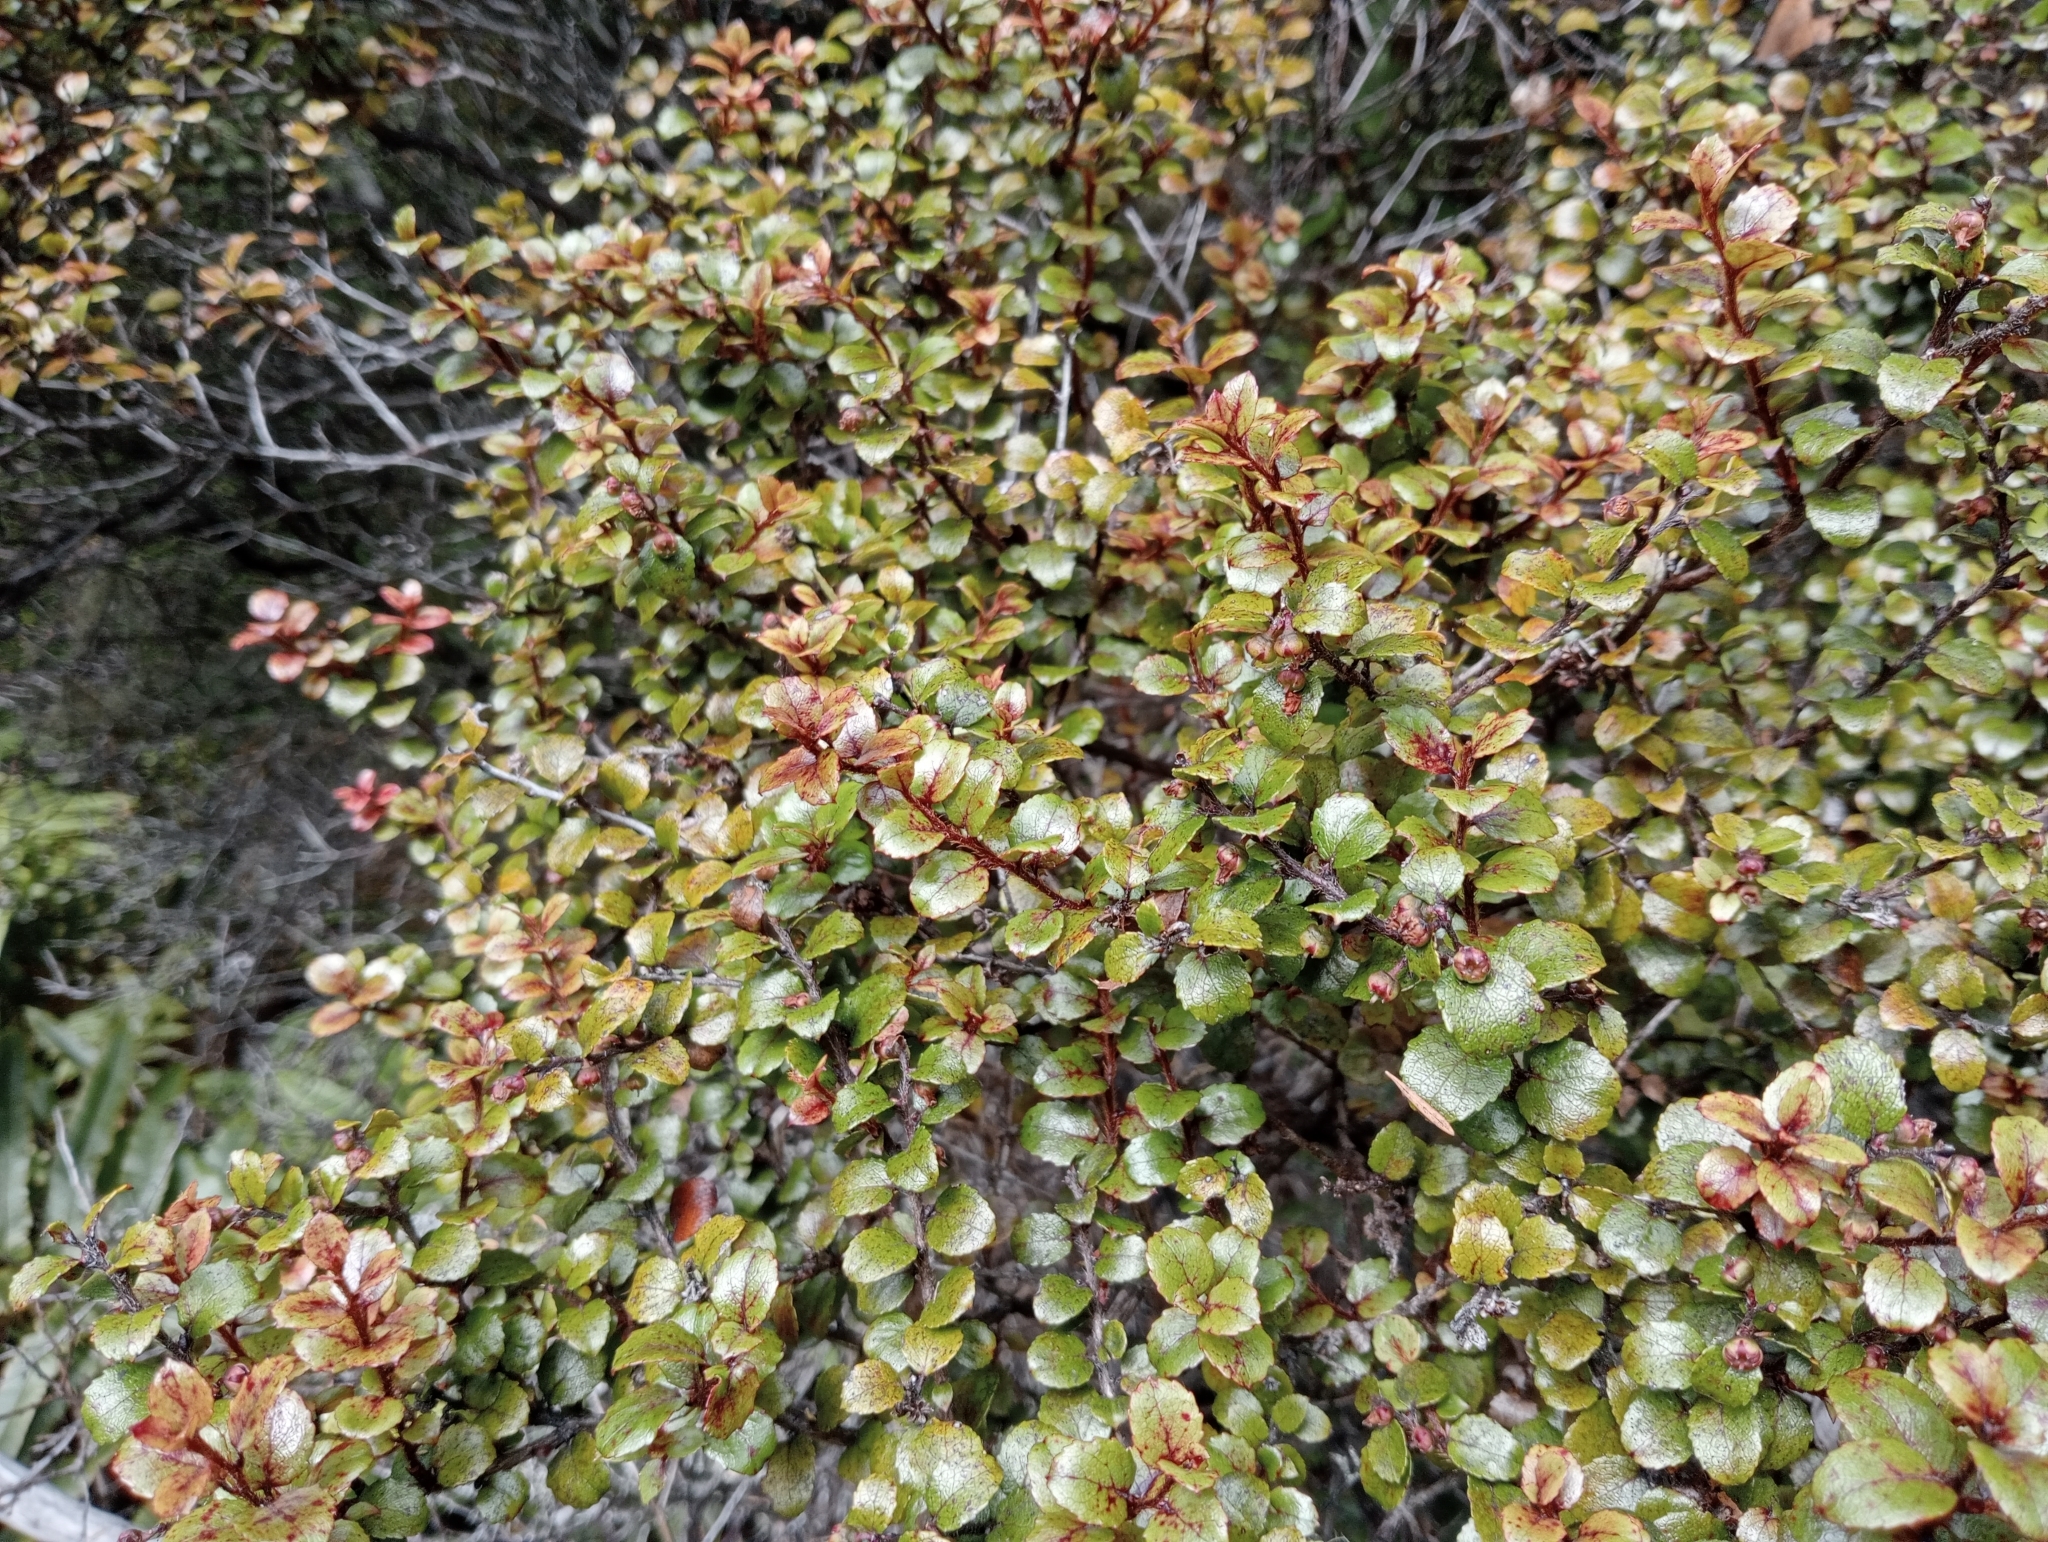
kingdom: Plantae
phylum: Tracheophyta
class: Magnoliopsida
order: Ericales
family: Ericaceae
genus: Gaultheria
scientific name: Gaultheria antipoda
